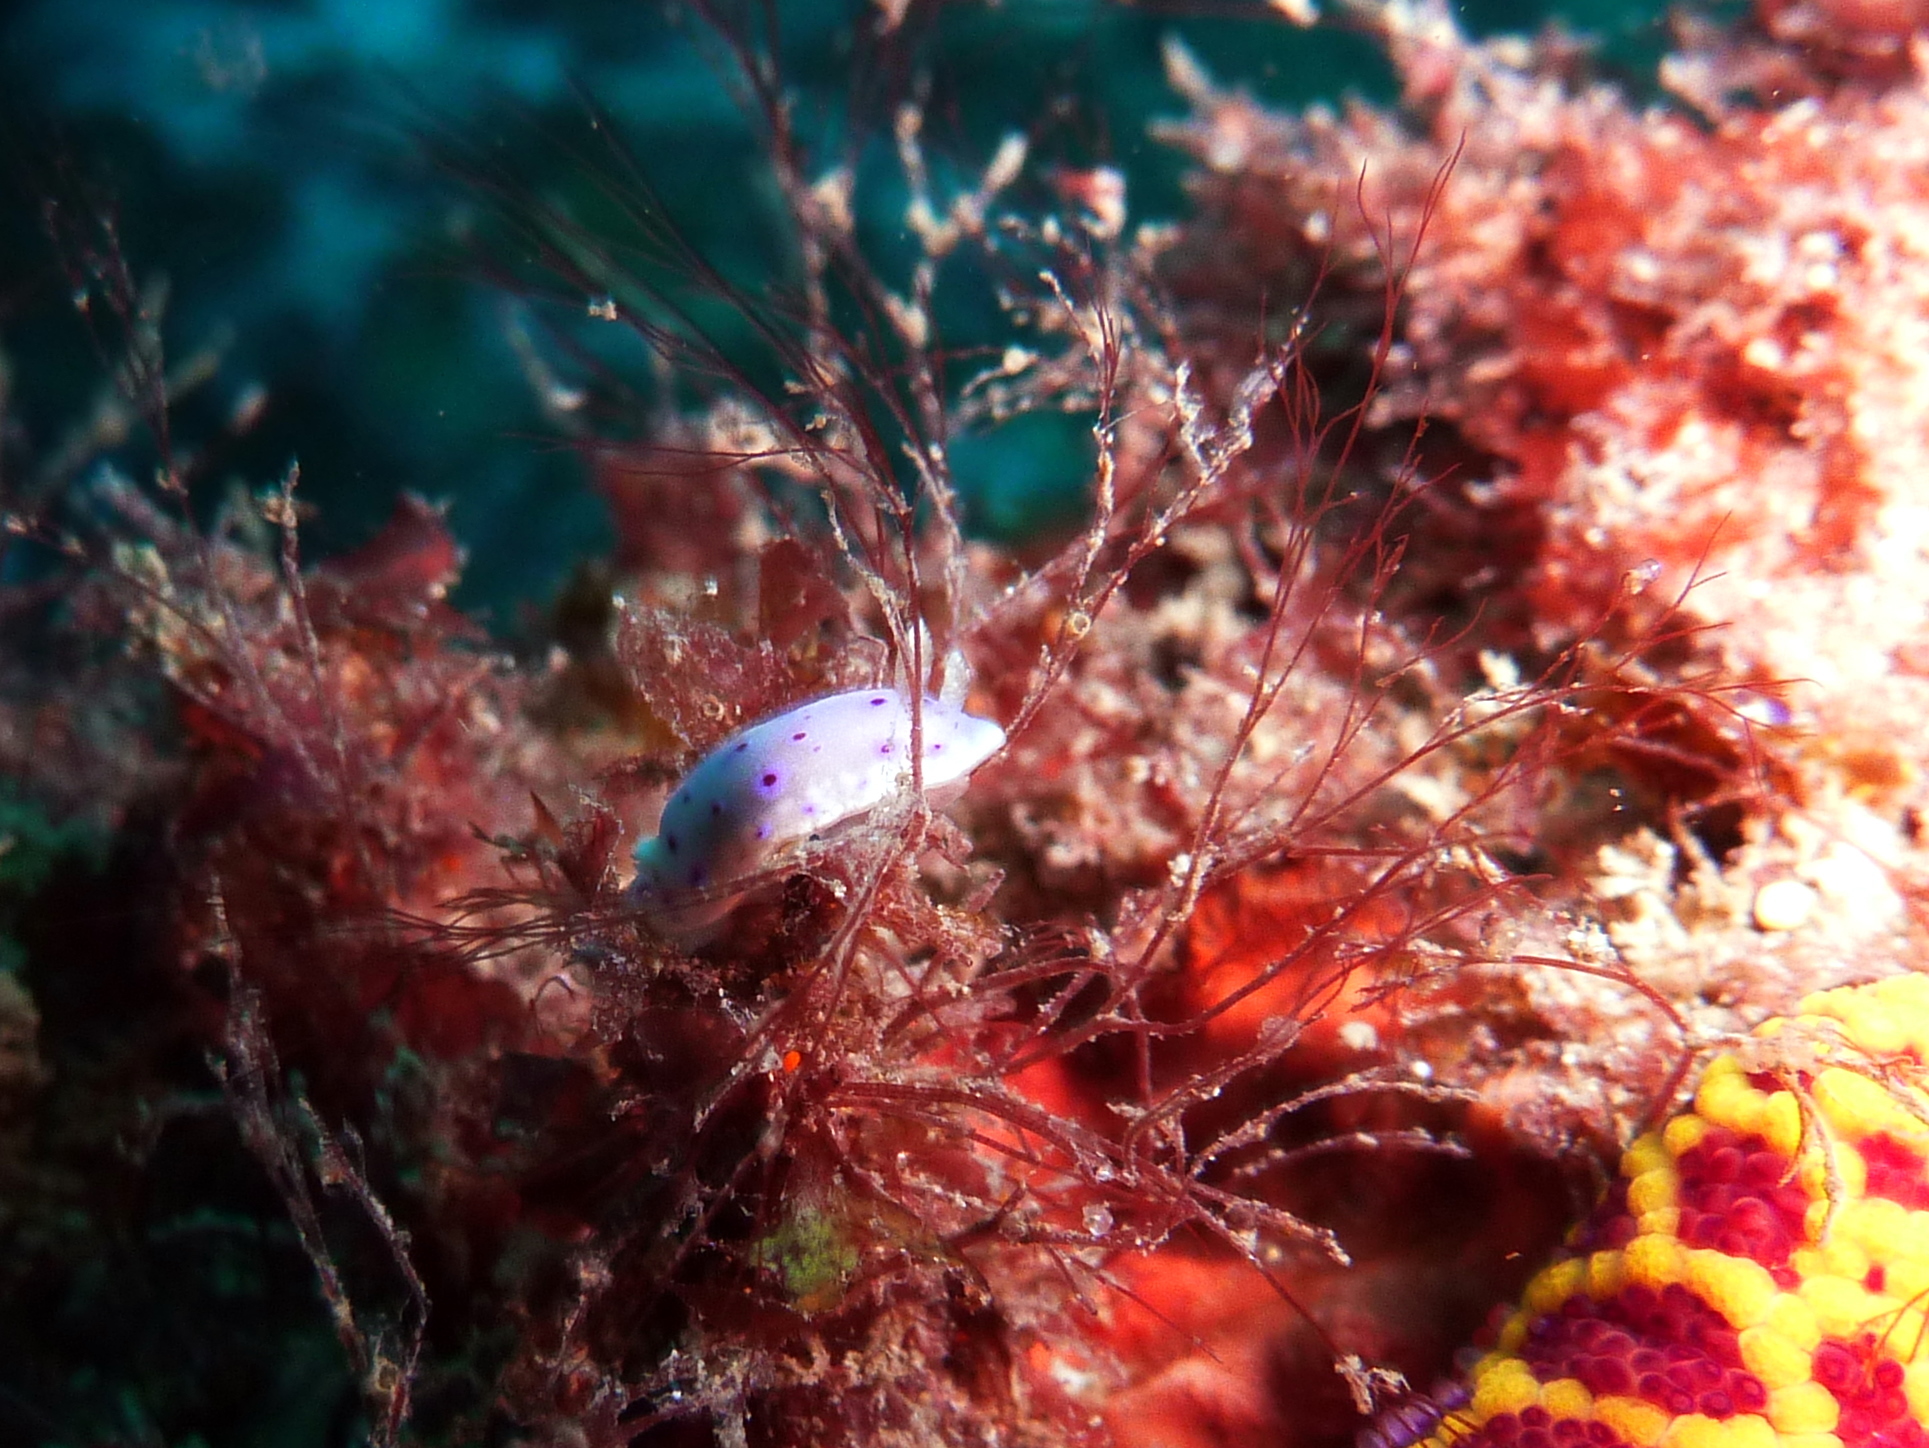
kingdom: Animalia
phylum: Mollusca
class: Gastropoda
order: Nudibranchia
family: Chromodorididae
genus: Goniobranchus
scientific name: Goniobranchus thompsoni
